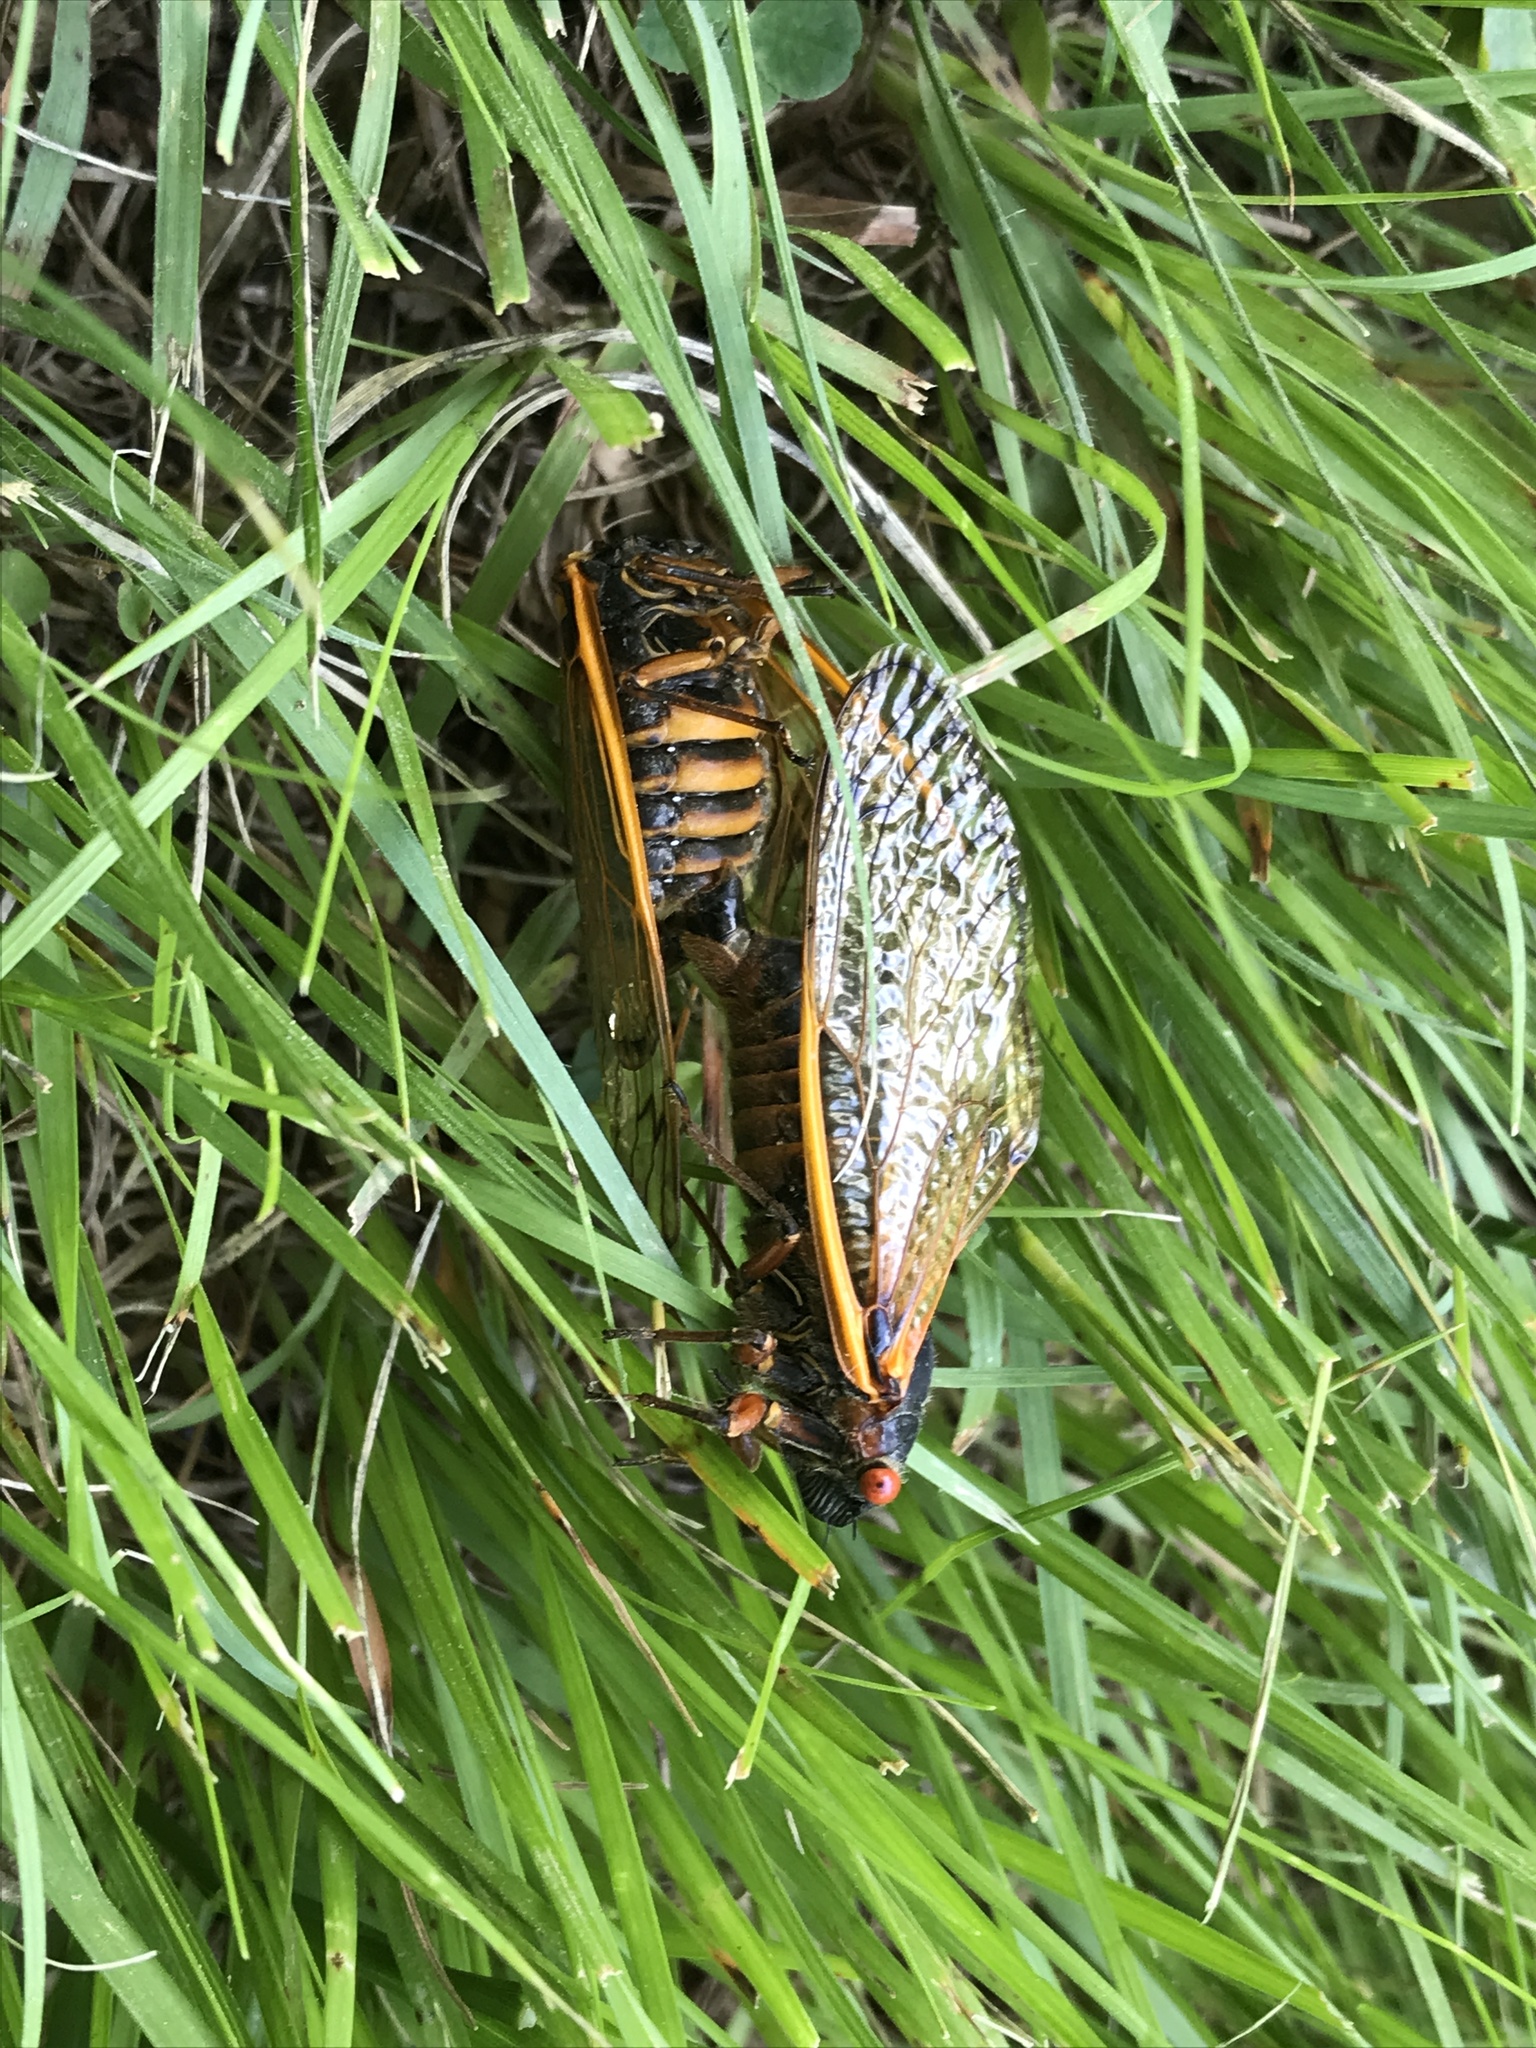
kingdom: Animalia
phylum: Arthropoda
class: Insecta
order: Hemiptera
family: Cicadidae
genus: Magicicada
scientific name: Magicicada septendecim
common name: Periodical cicada
